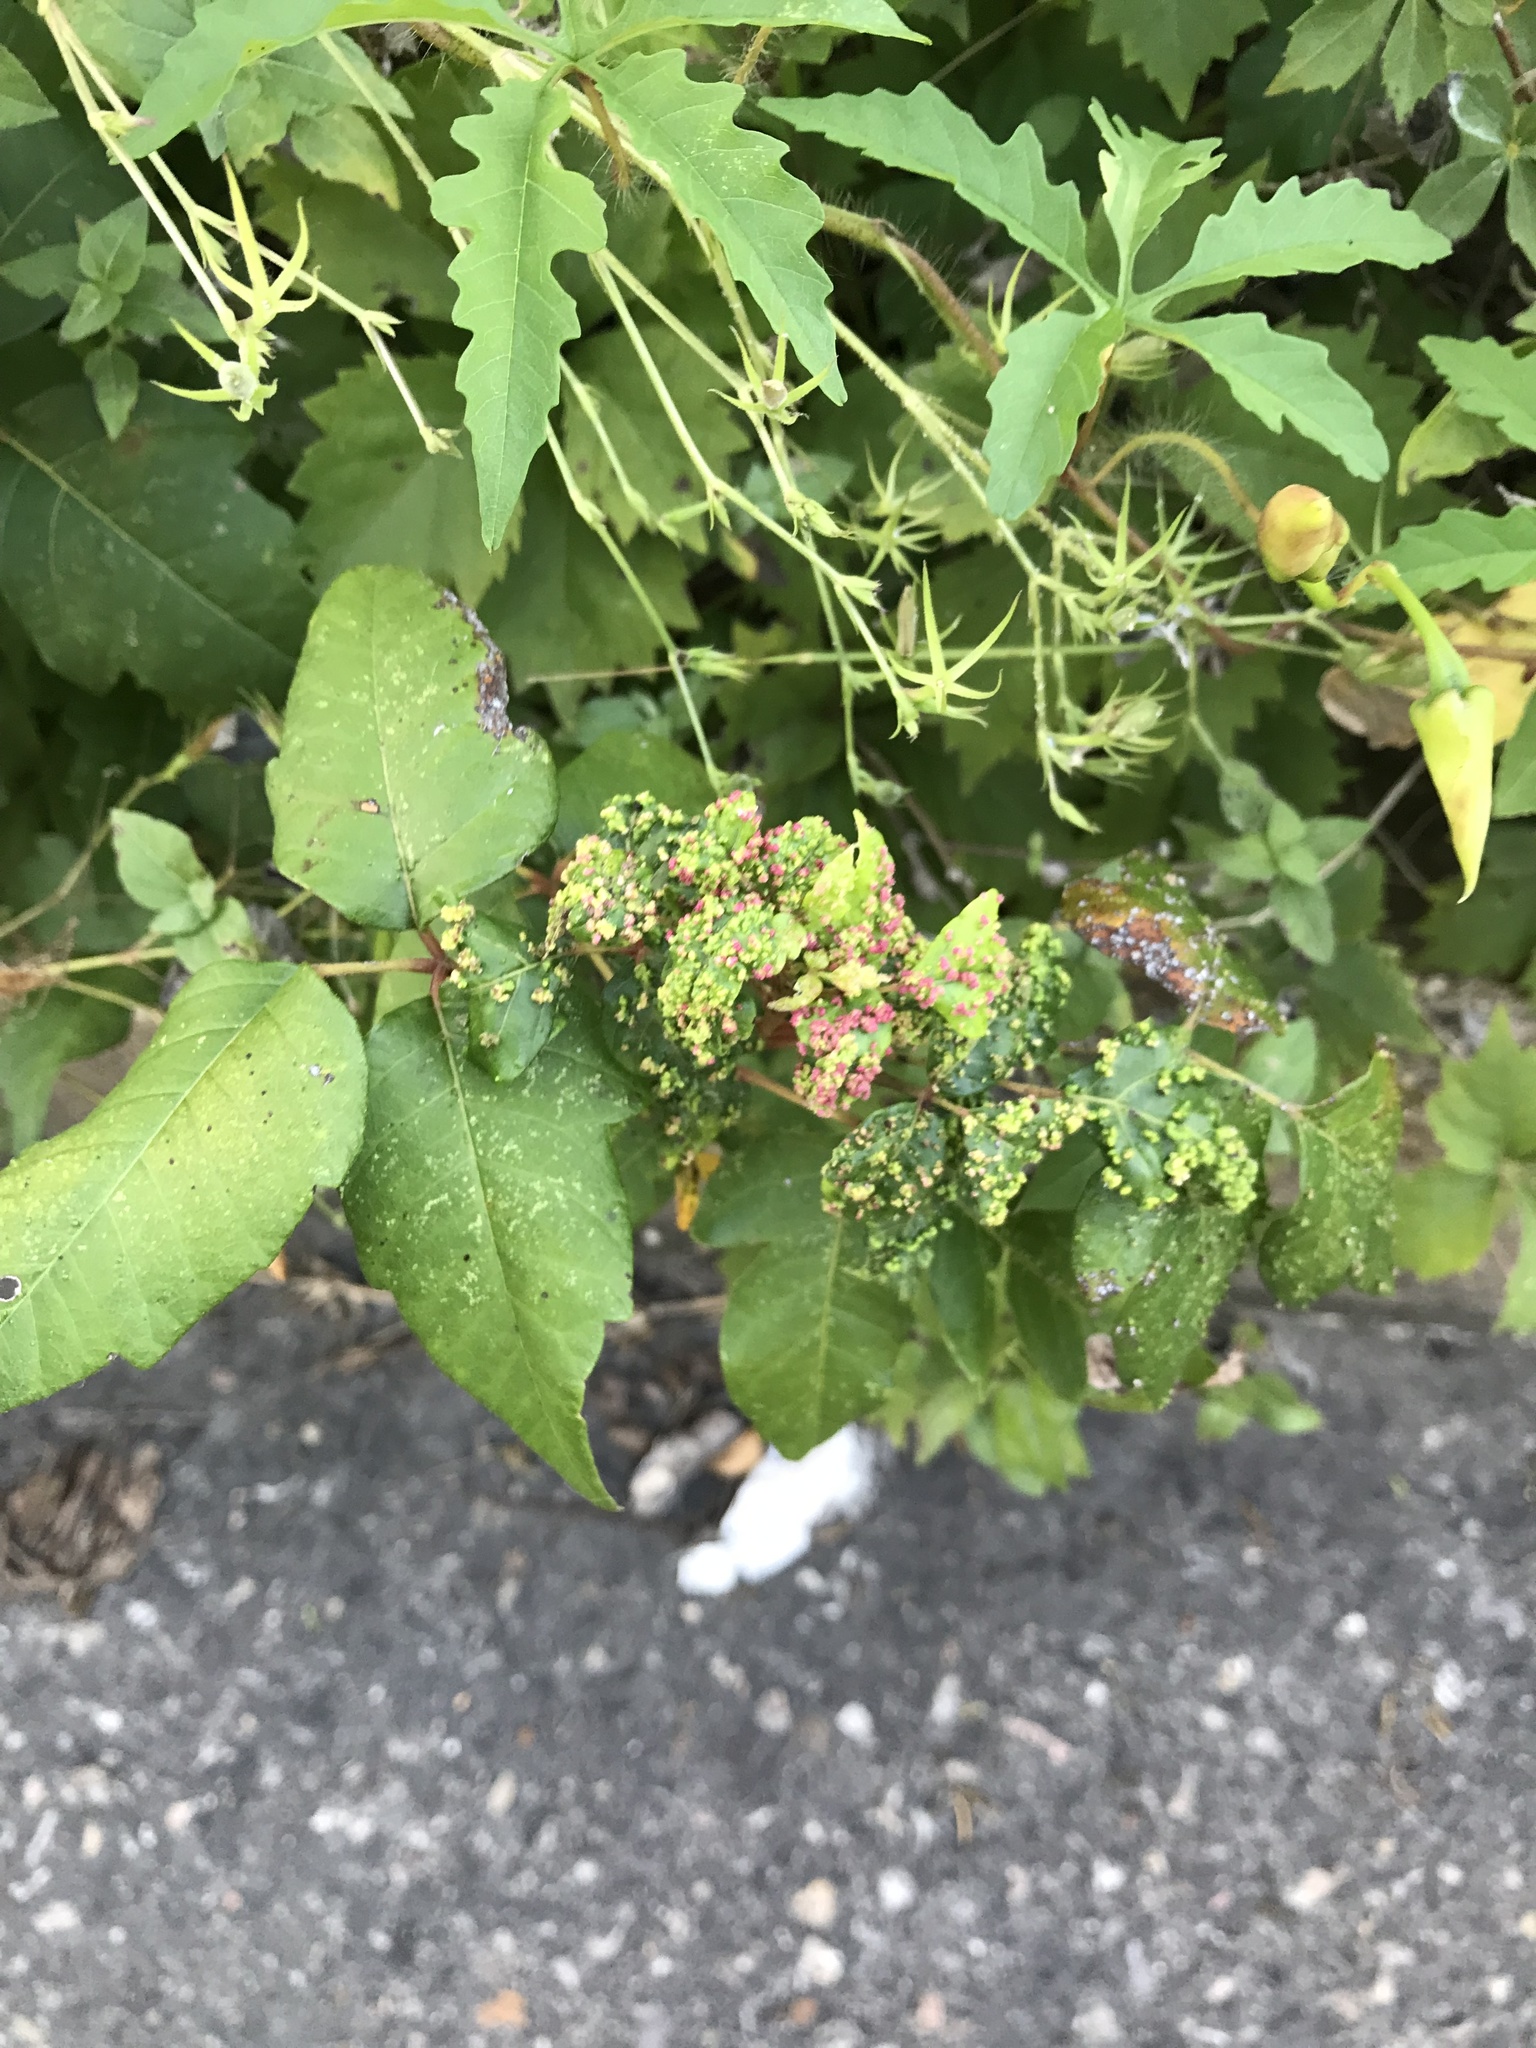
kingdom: Animalia
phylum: Arthropoda
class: Arachnida
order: Trombidiformes
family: Eriophyidae
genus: Aculops
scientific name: Aculops
